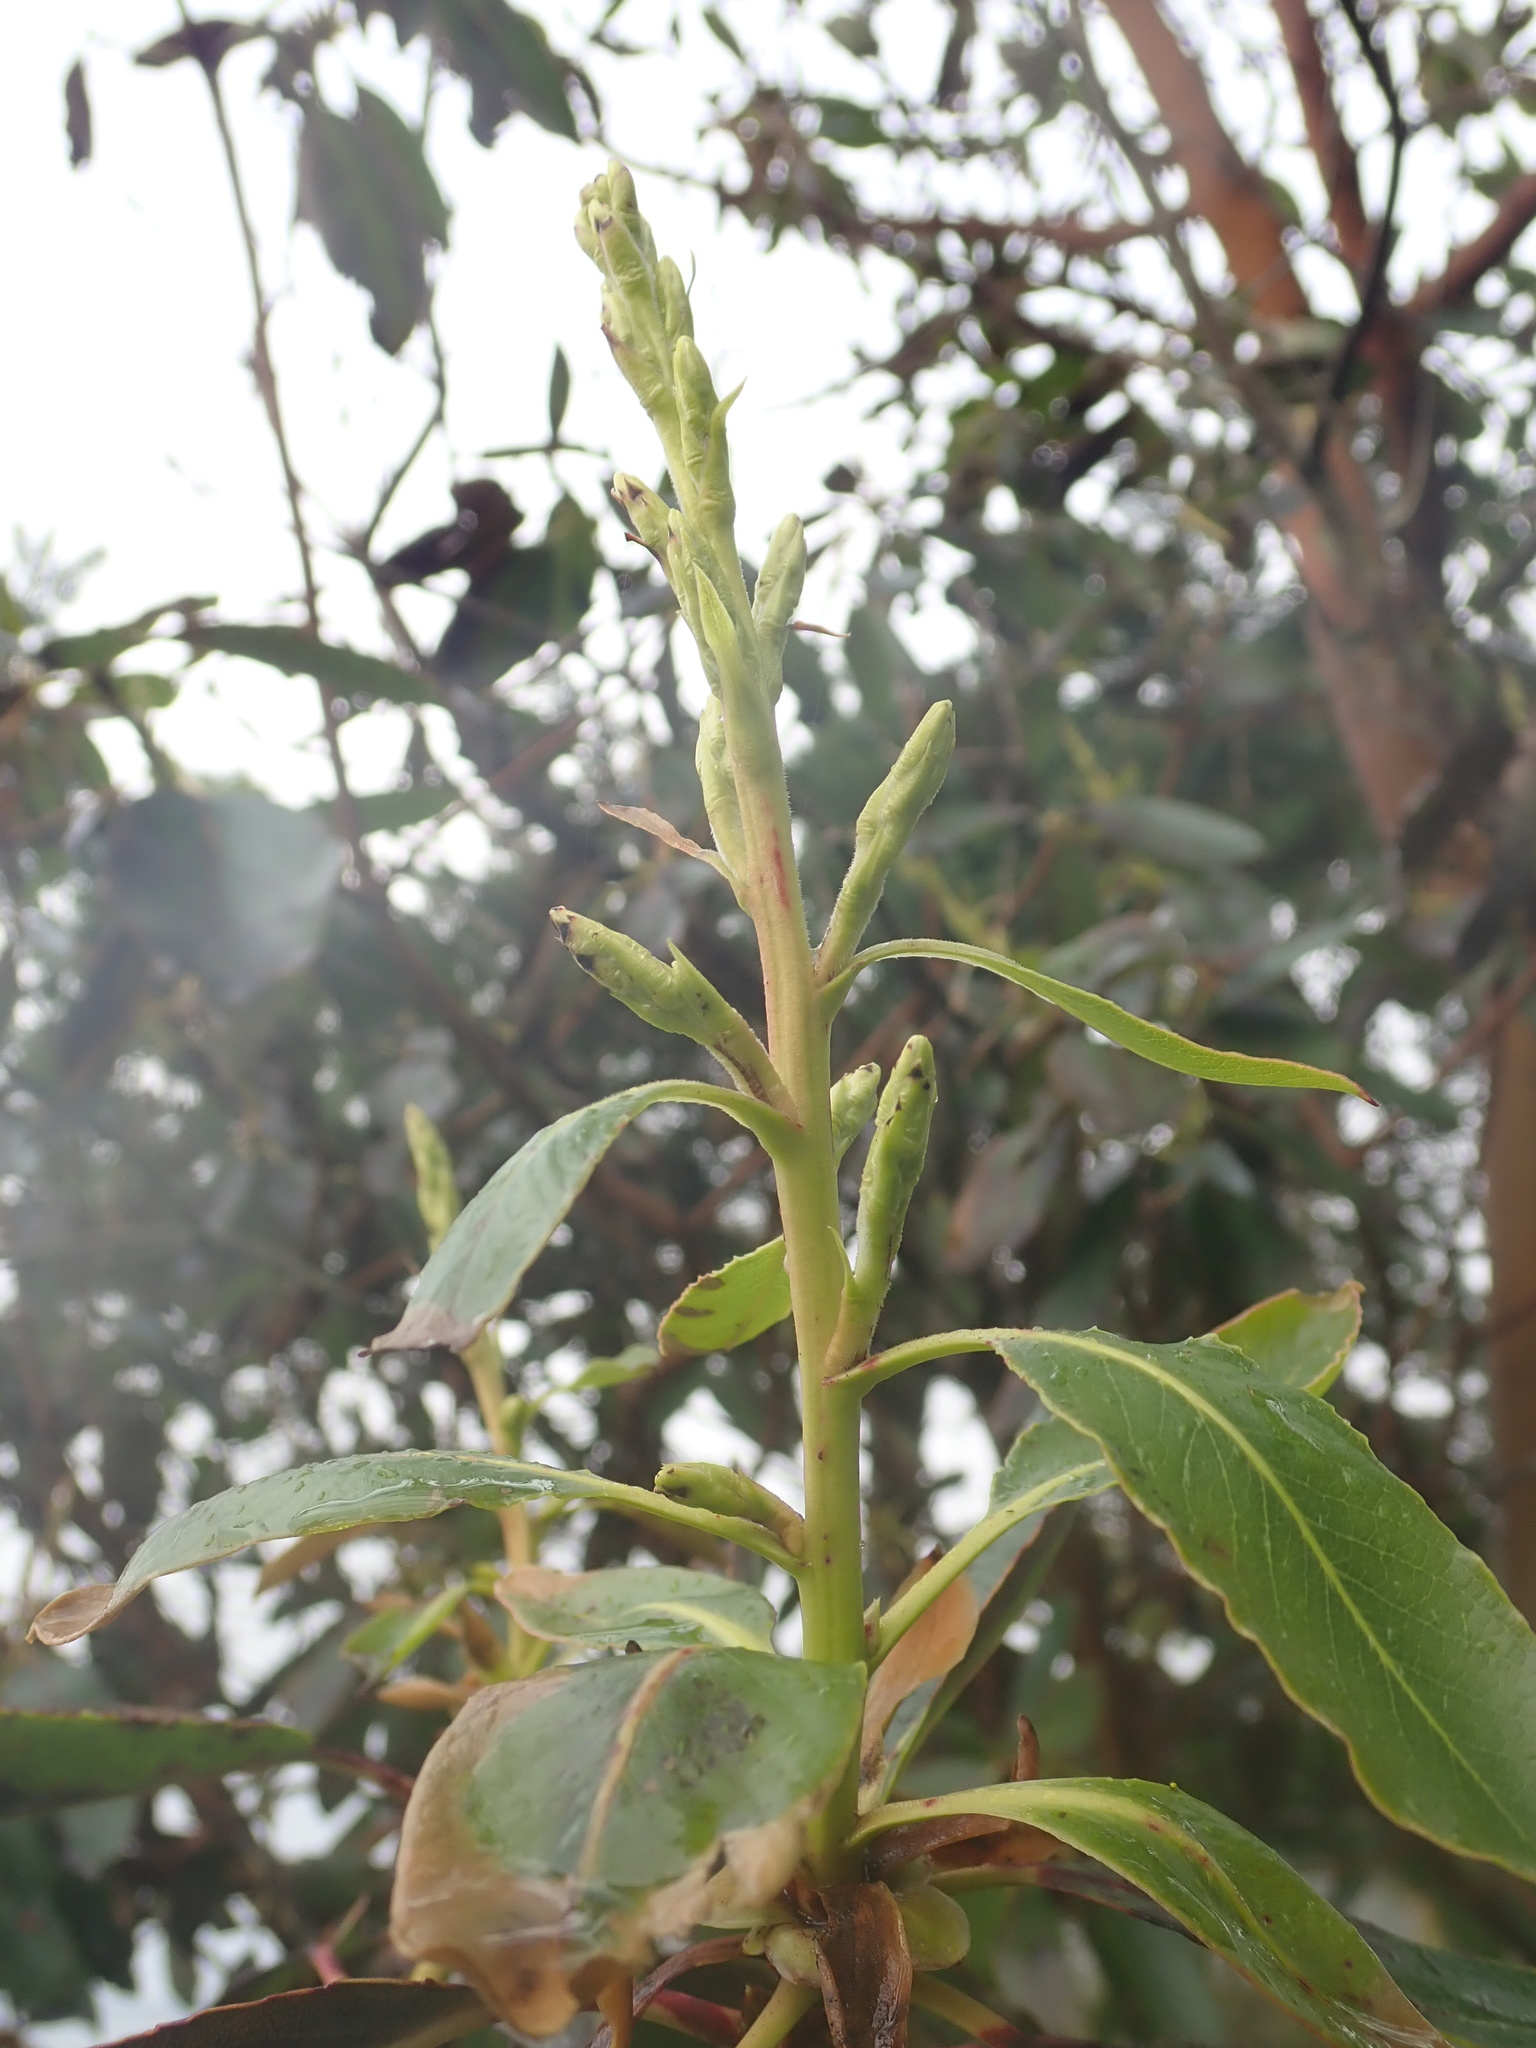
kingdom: Plantae
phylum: Tracheophyta
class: Magnoliopsida
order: Ericales
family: Ericaceae
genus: Arbutus
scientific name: Arbutus menziesii
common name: Pacific madrone
